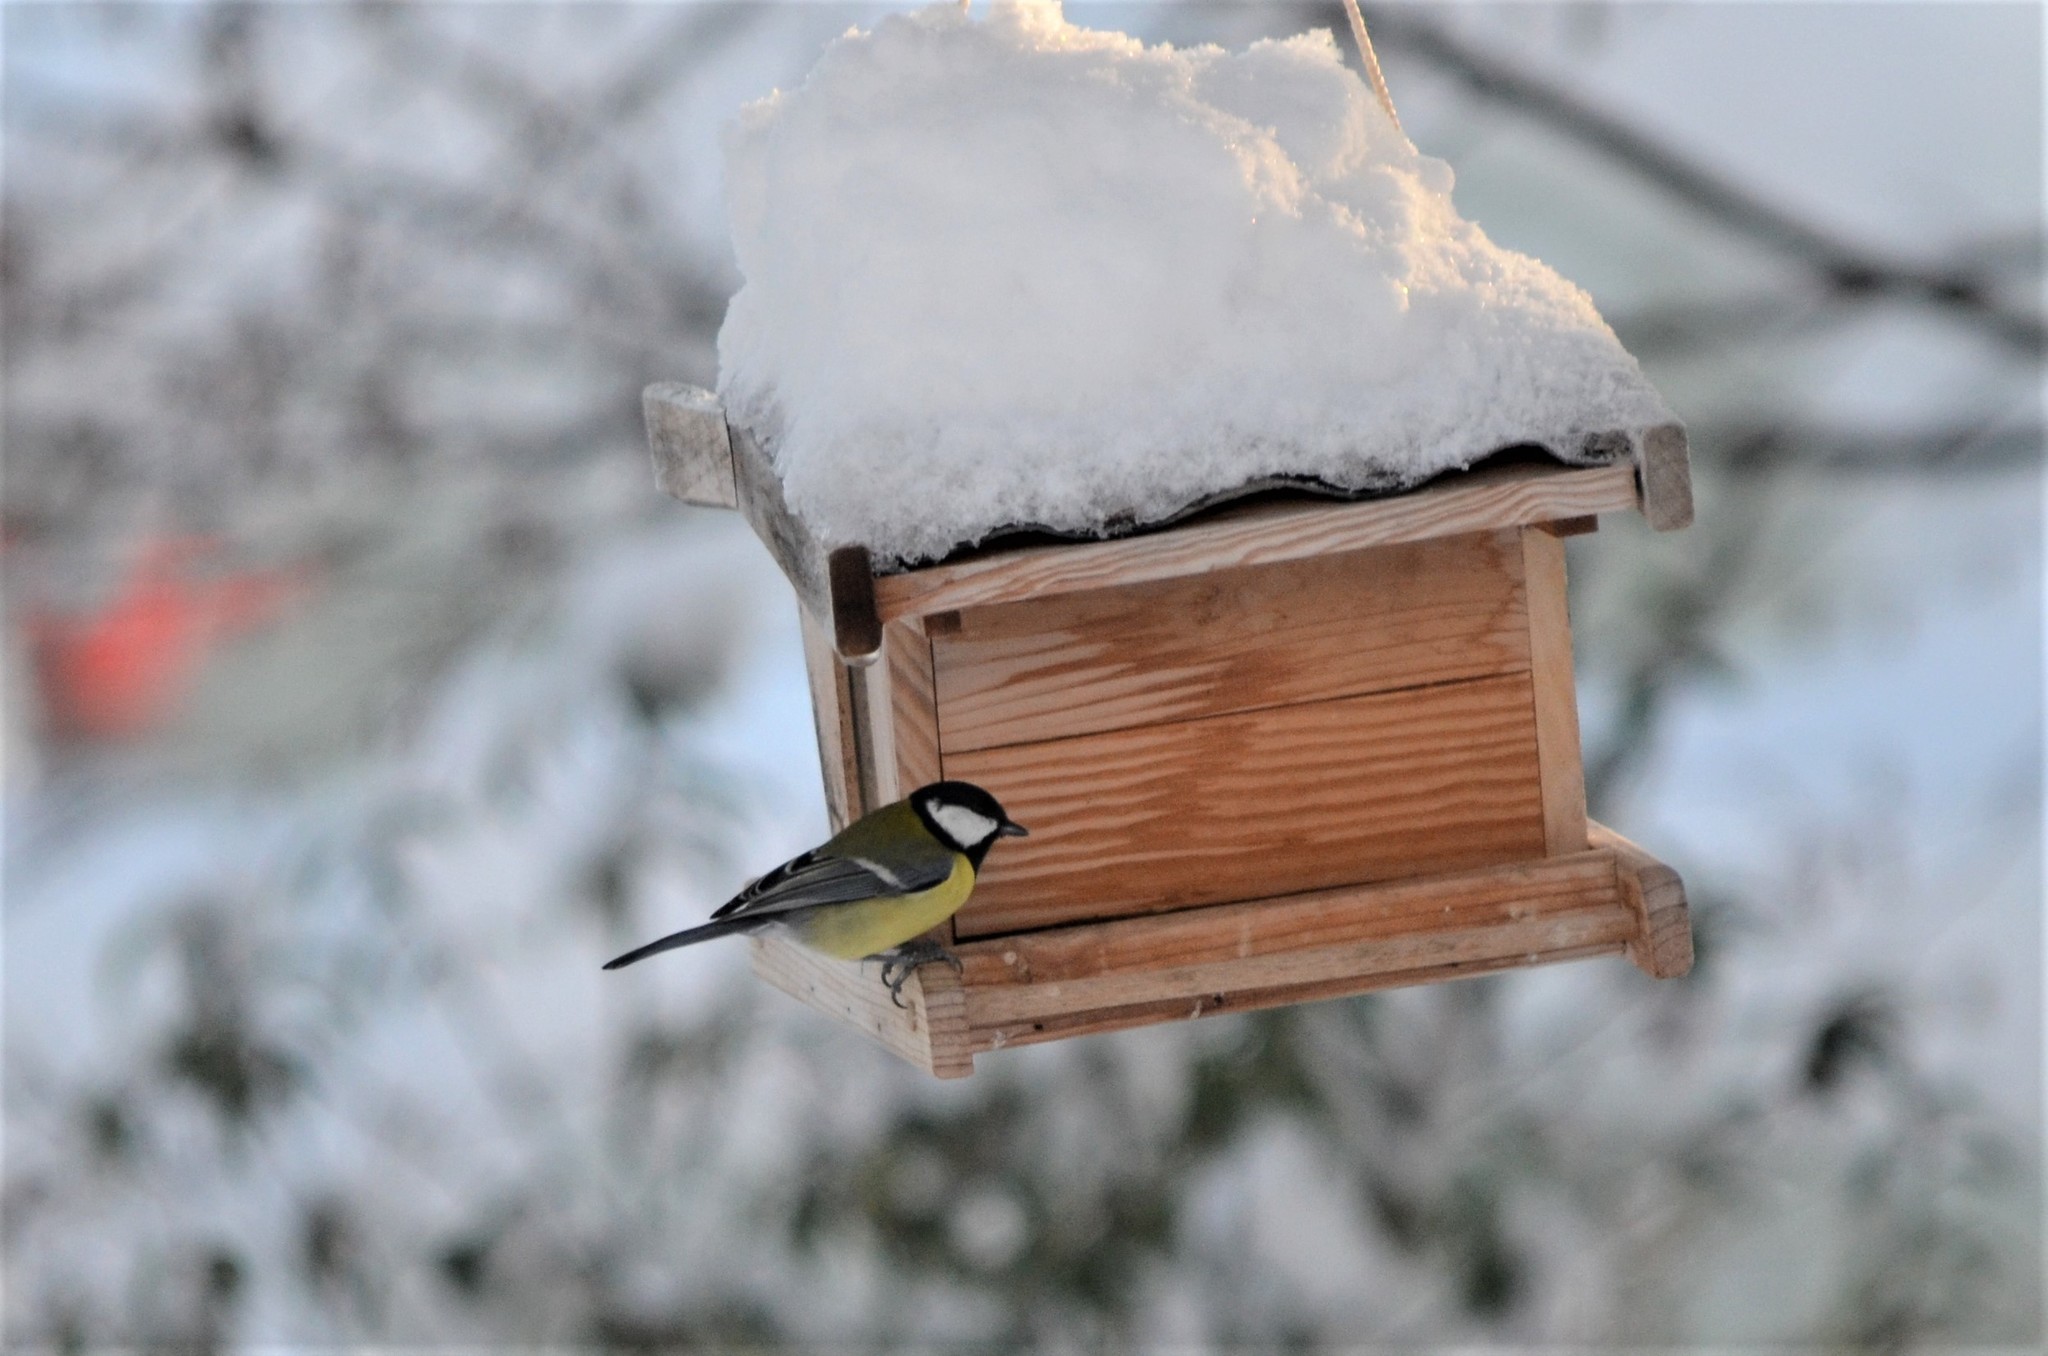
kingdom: Animalia
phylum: Chordata
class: Aves
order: Passeriformes
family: Paridae
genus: Parus
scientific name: Parus major
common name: Great tit
